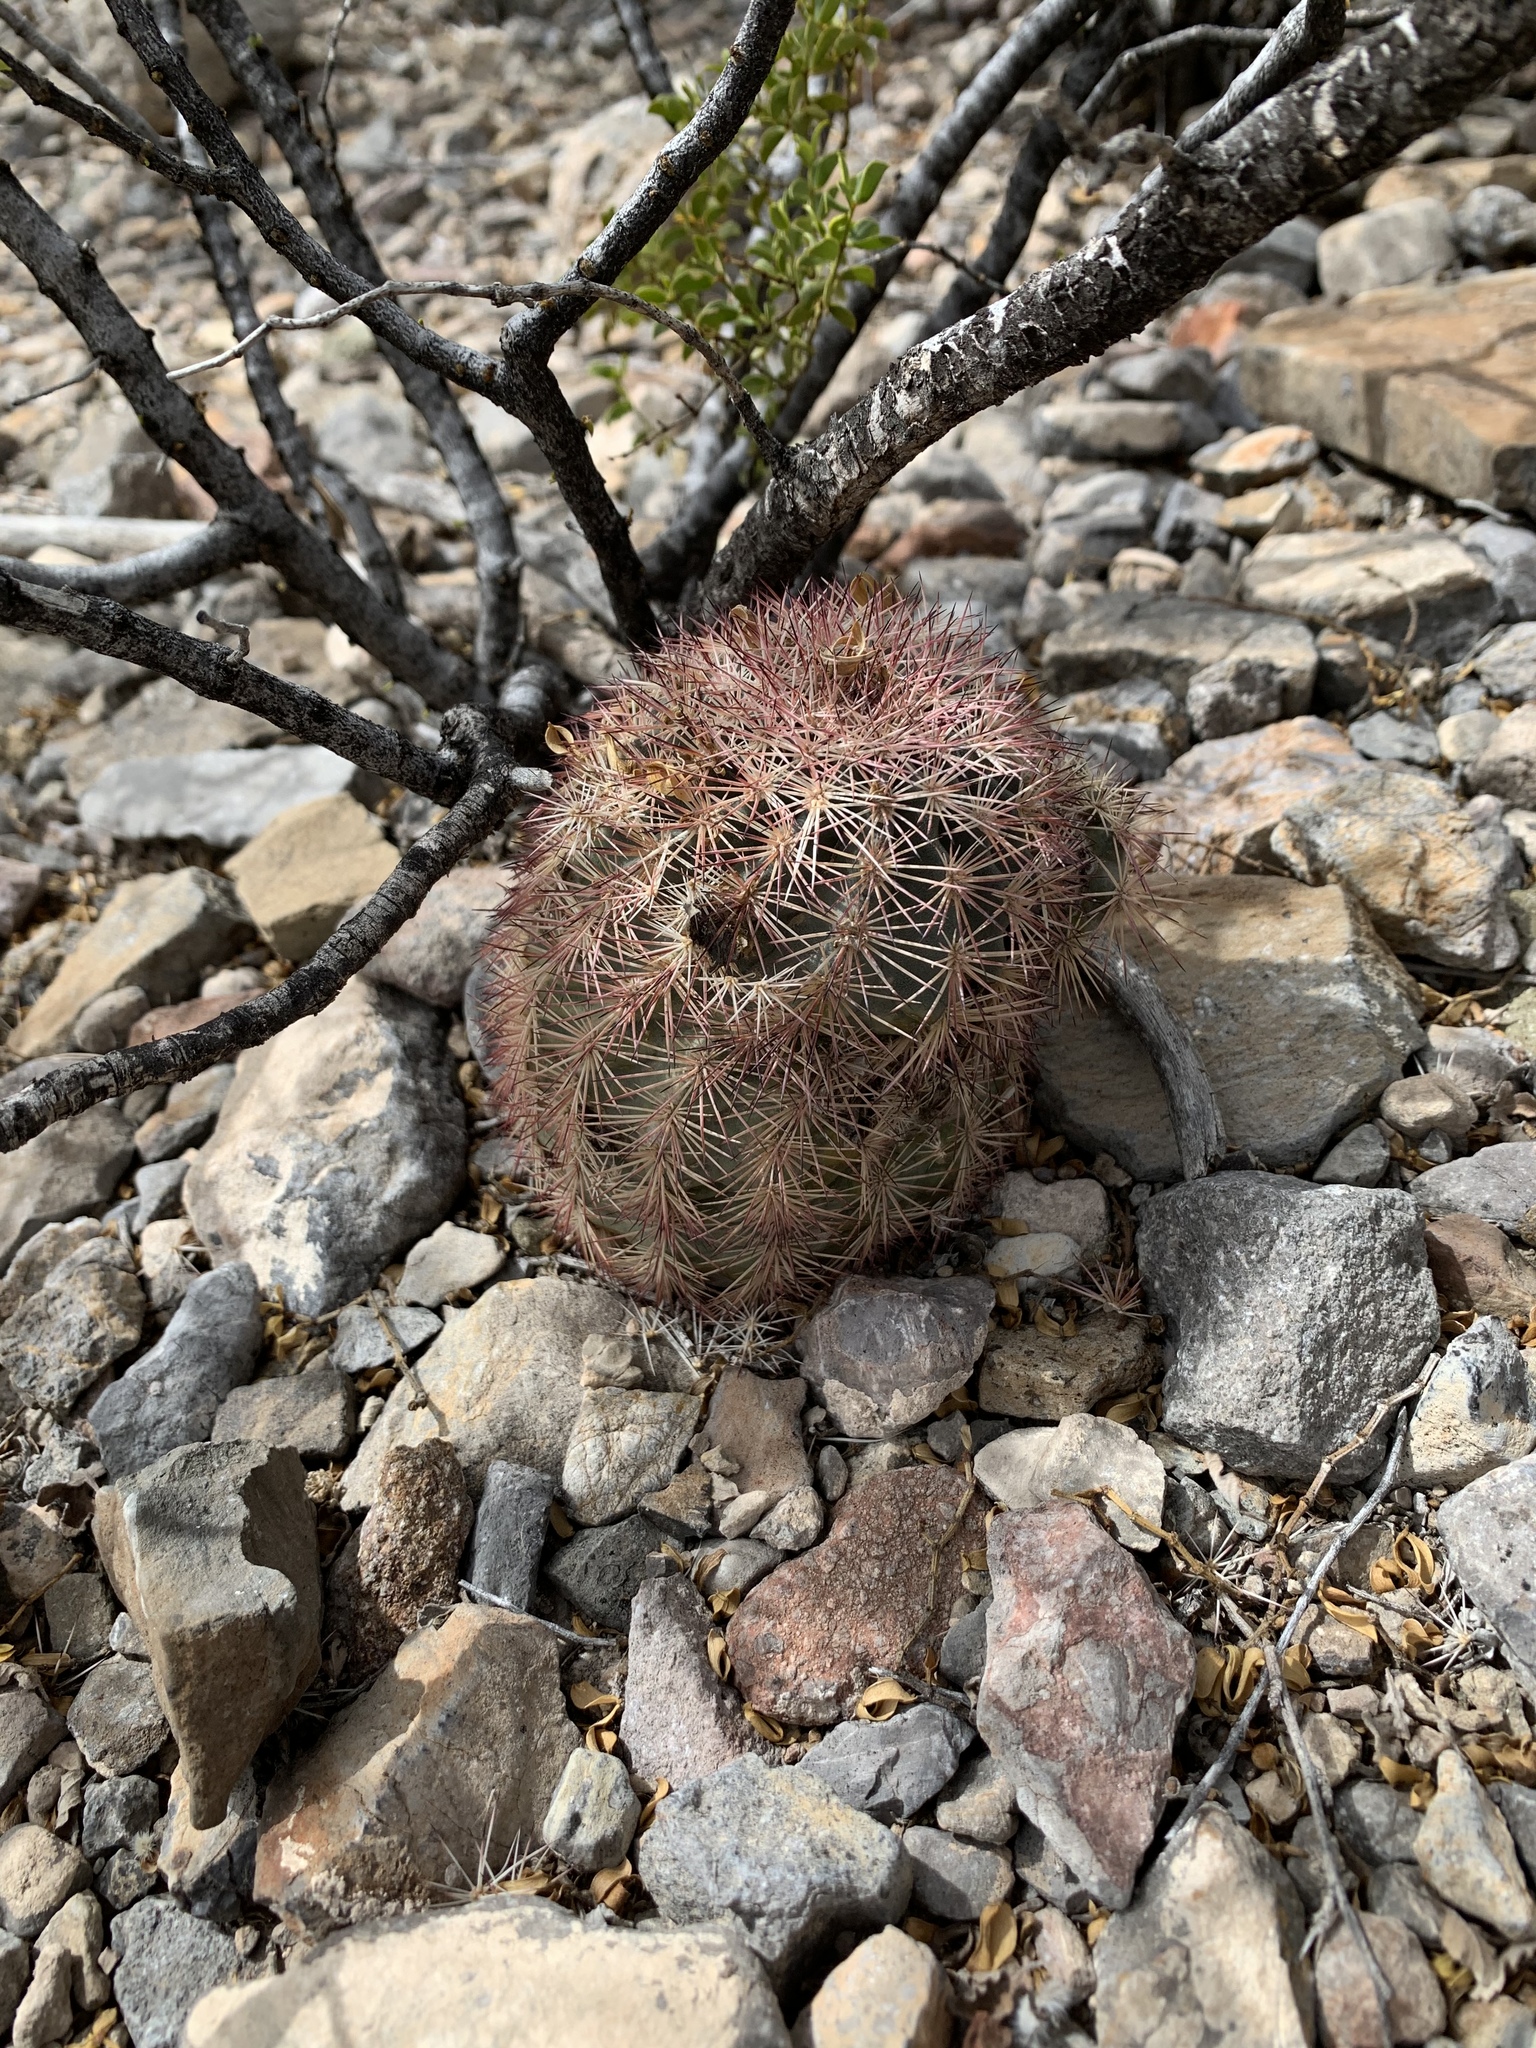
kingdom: Plantae
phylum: Tracheophyta
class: Magnoliopsida
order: Caryophyllales
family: Cactaceae
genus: Echinocereus
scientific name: Echinocereus dasyacanthus
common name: Spiny hedgehog cactus
